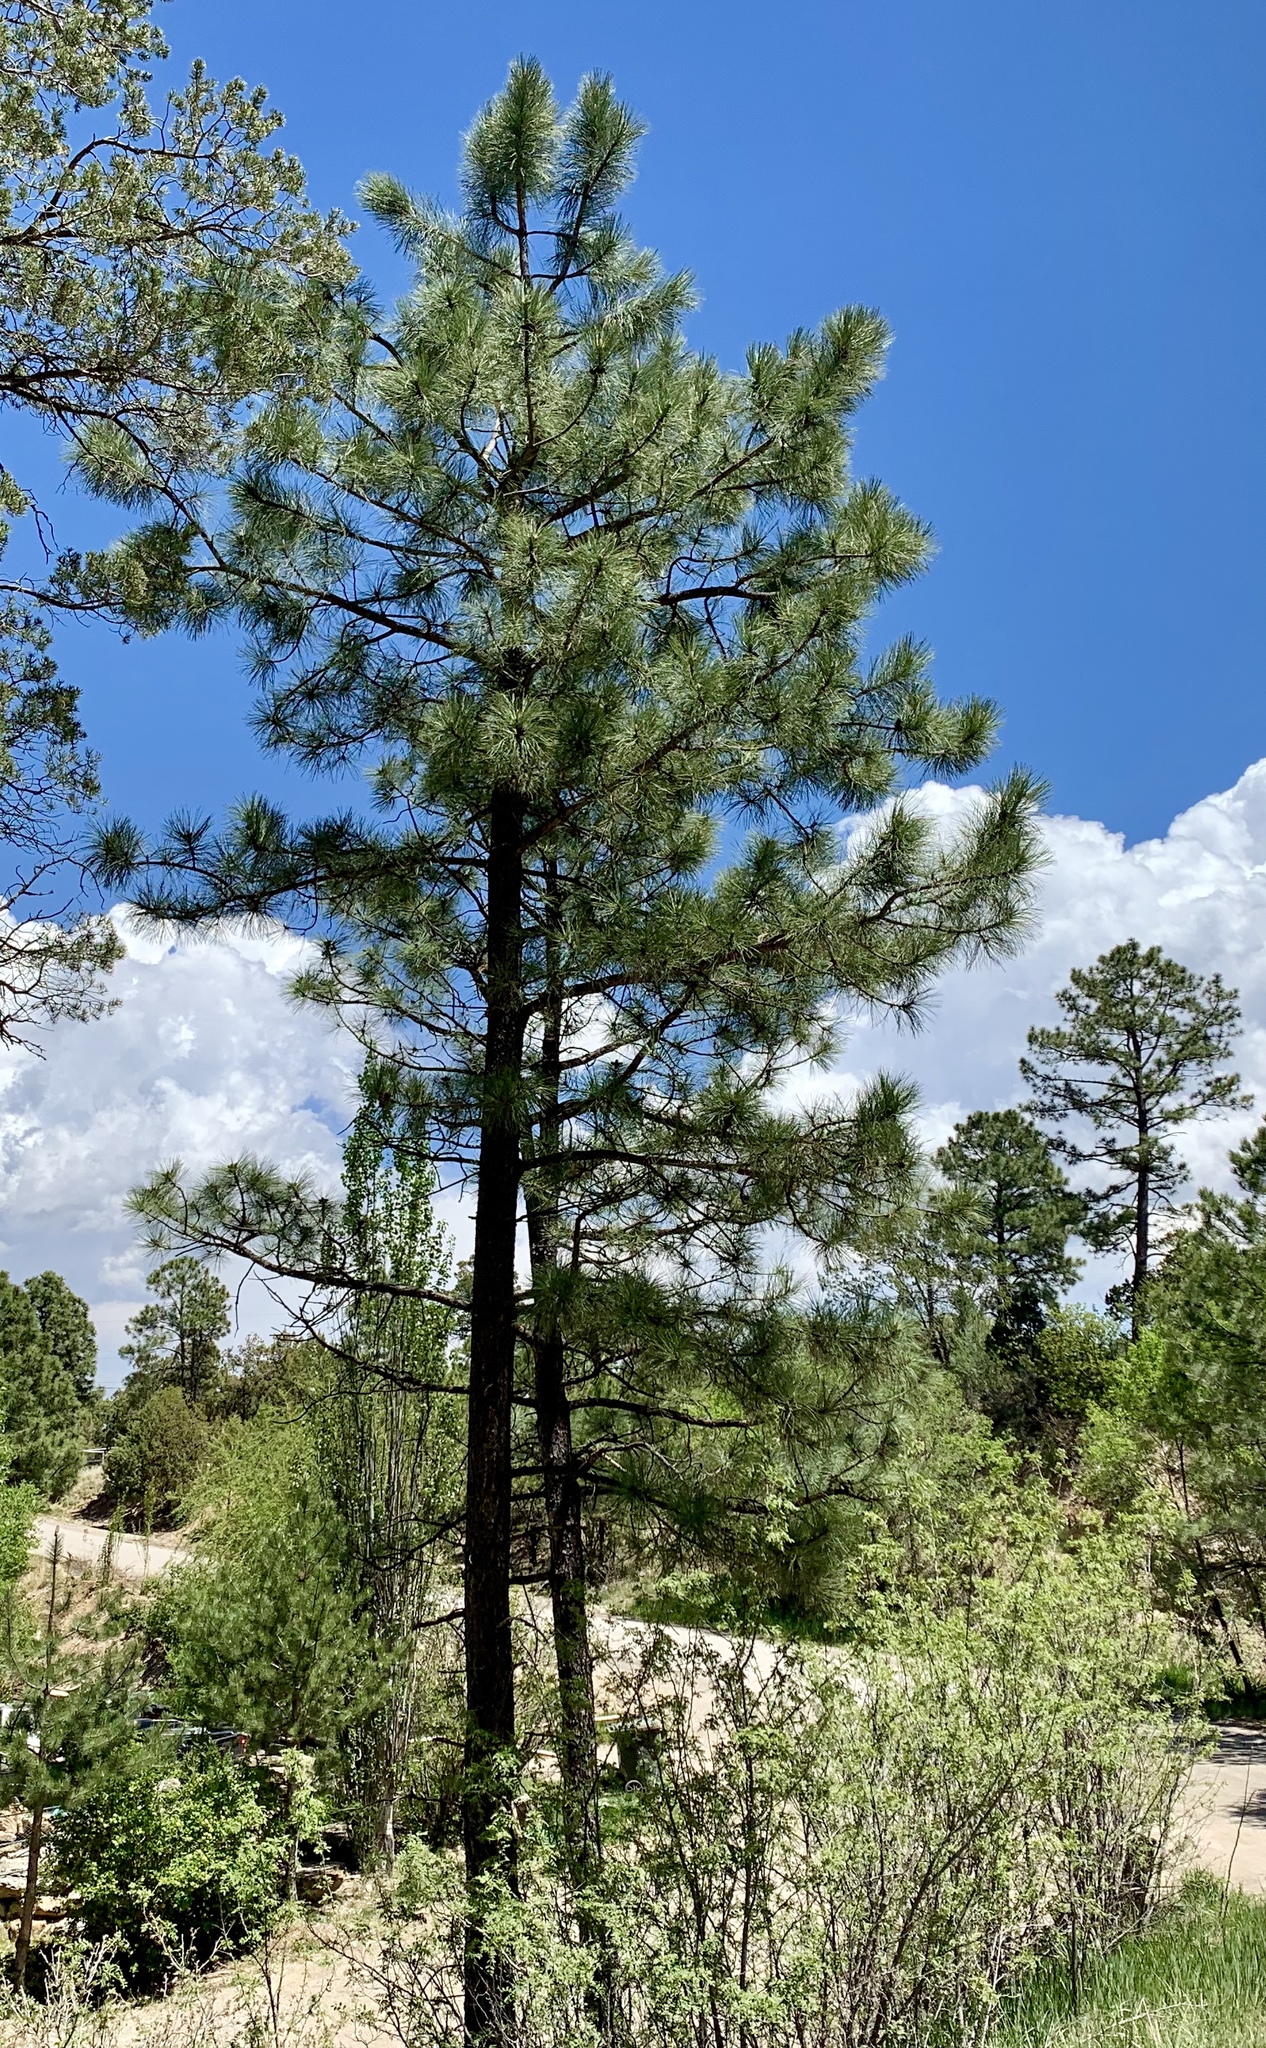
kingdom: Plantae
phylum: Tracheophyta
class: Pinopsida
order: Pinales
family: Pinaceae
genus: Pinus
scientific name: Pinus ponderosa
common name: Western yellow-pine
